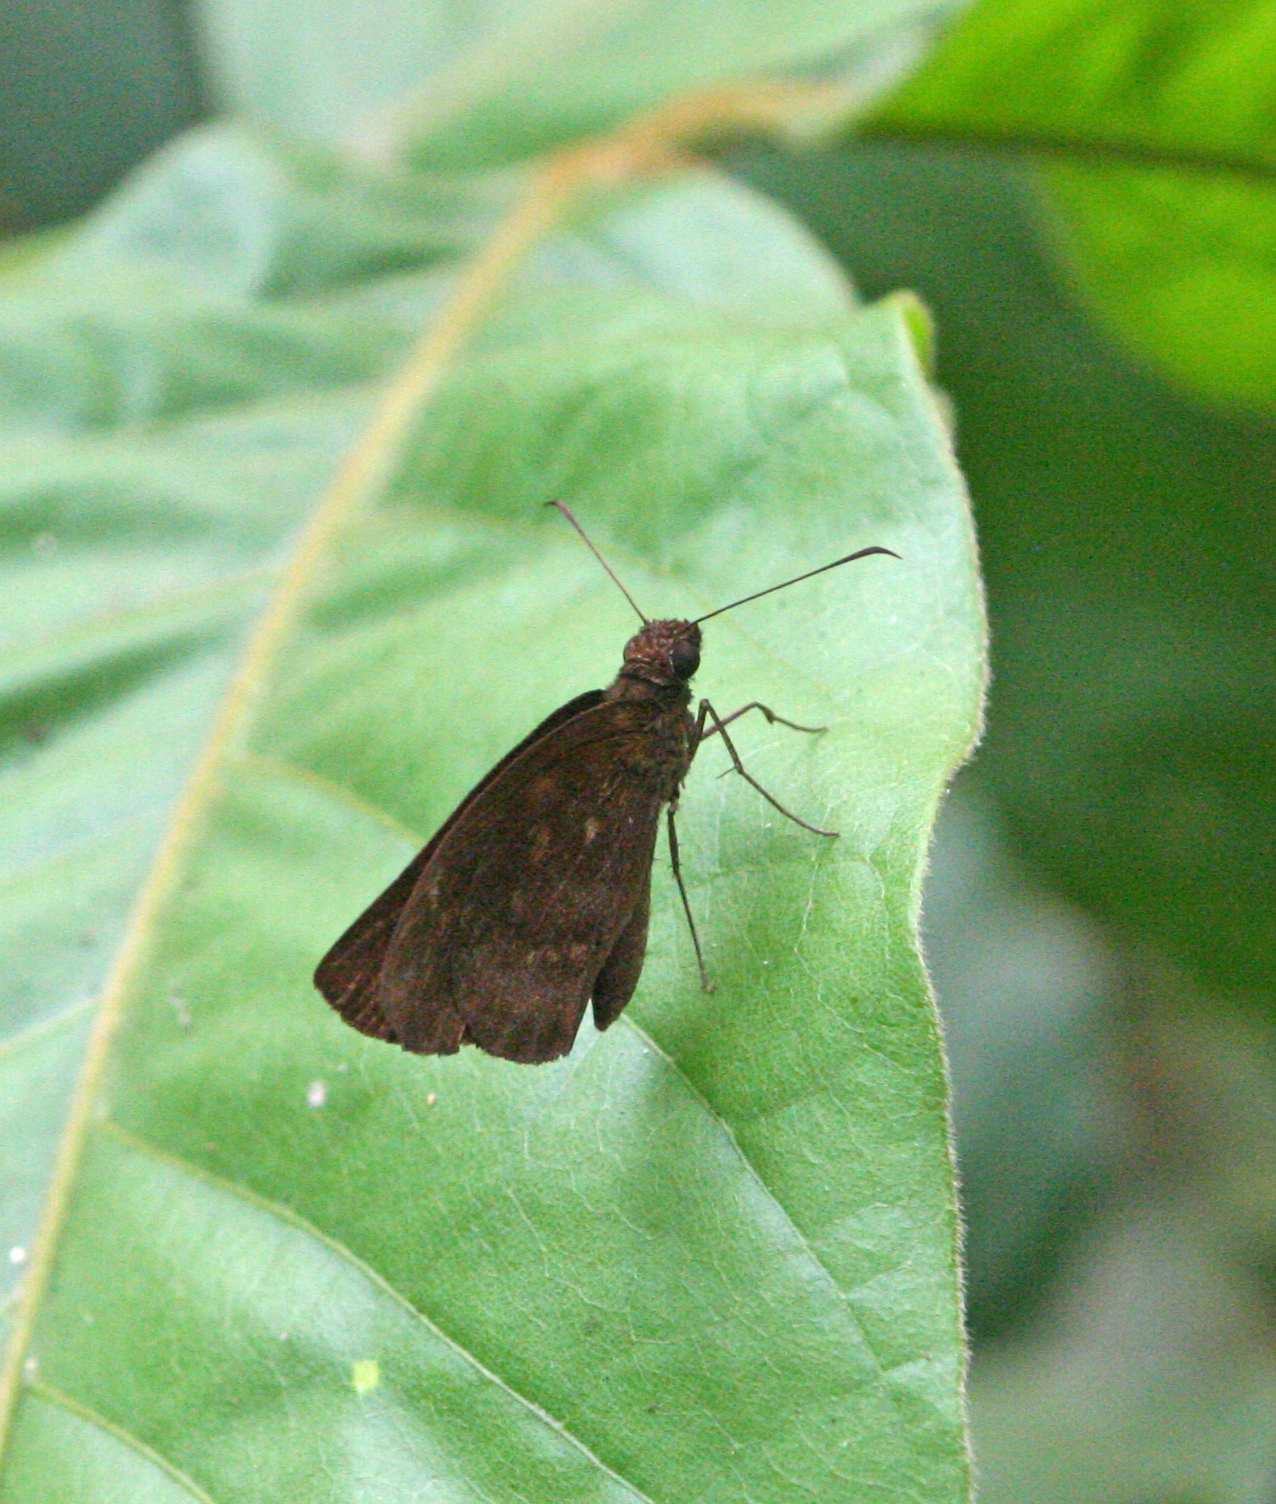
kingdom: Animalia
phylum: Arthropoda
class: Insecta
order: Lepidoptera
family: Hesperiidae
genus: Psolos
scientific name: Psolos fuligo
